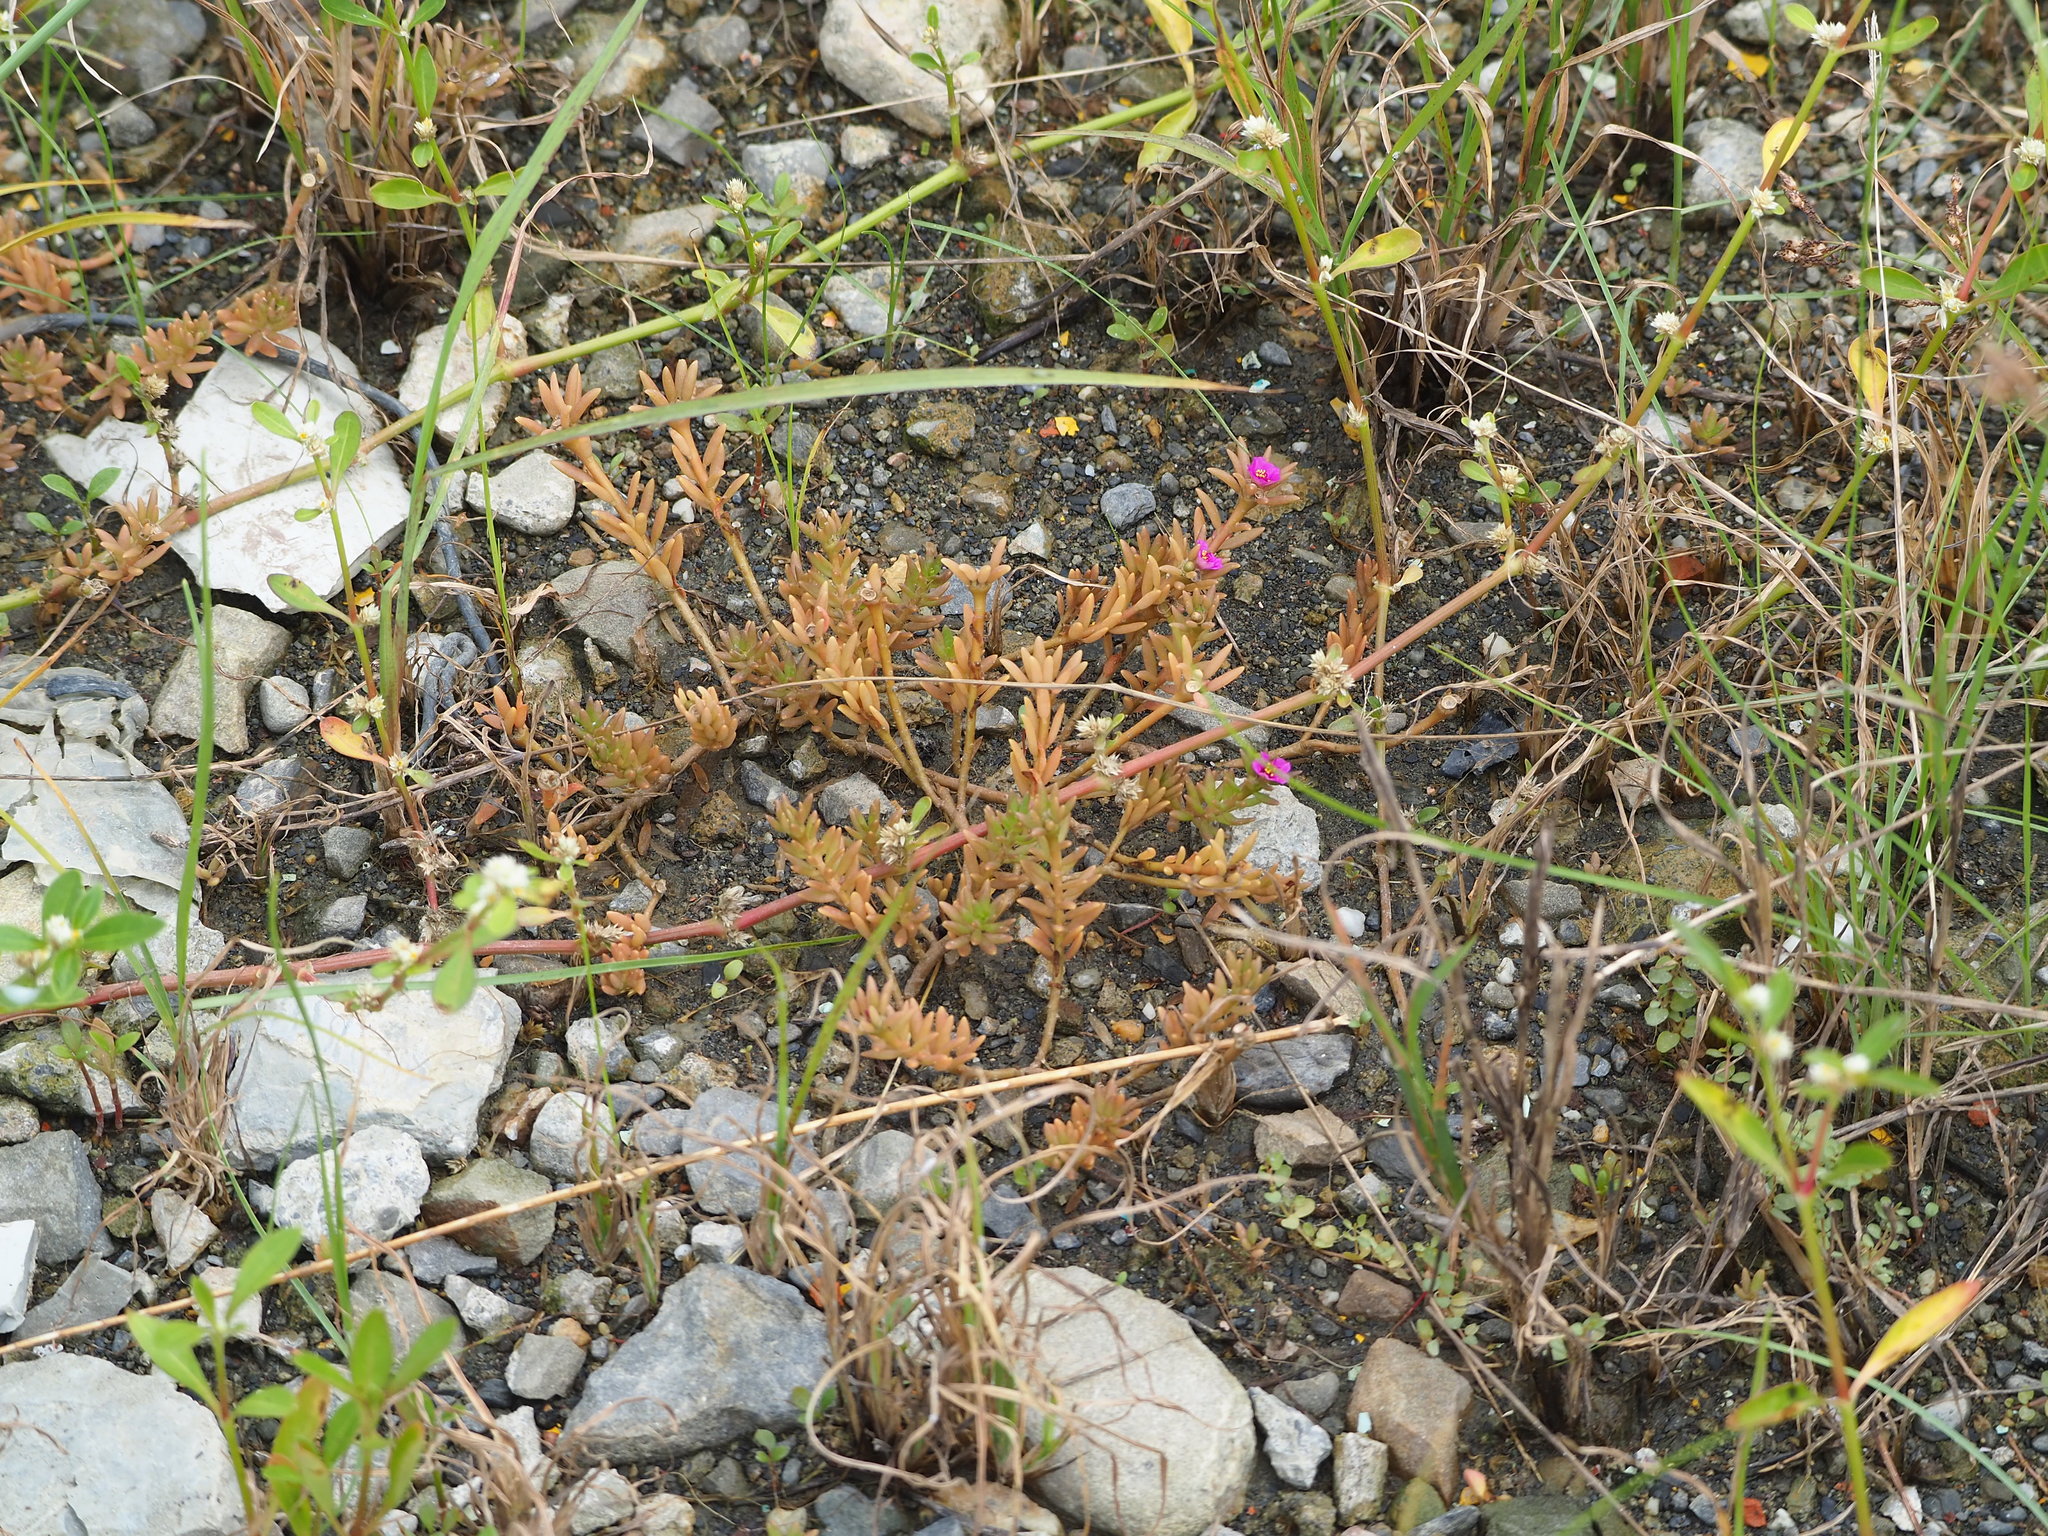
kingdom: Plantae
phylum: Tracheophyta
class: Magnoliopsida
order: Caryophyllales
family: Portulacaceae
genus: Portulaca
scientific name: Portulaca pilosa
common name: Kiss me quick
